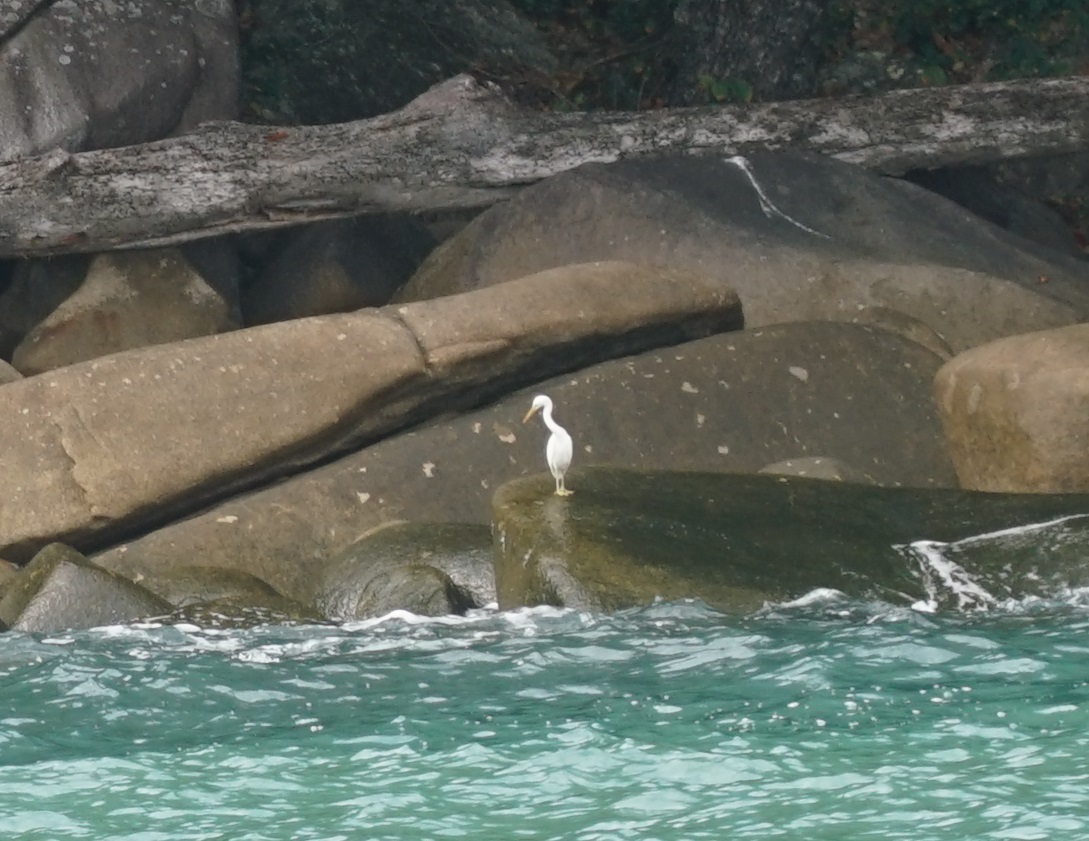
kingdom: Animalia
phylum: Chordata
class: Aves
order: Pelecaniformes
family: Ardeidae
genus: Egretta
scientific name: Egretta sacra
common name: Pacific reef heron
